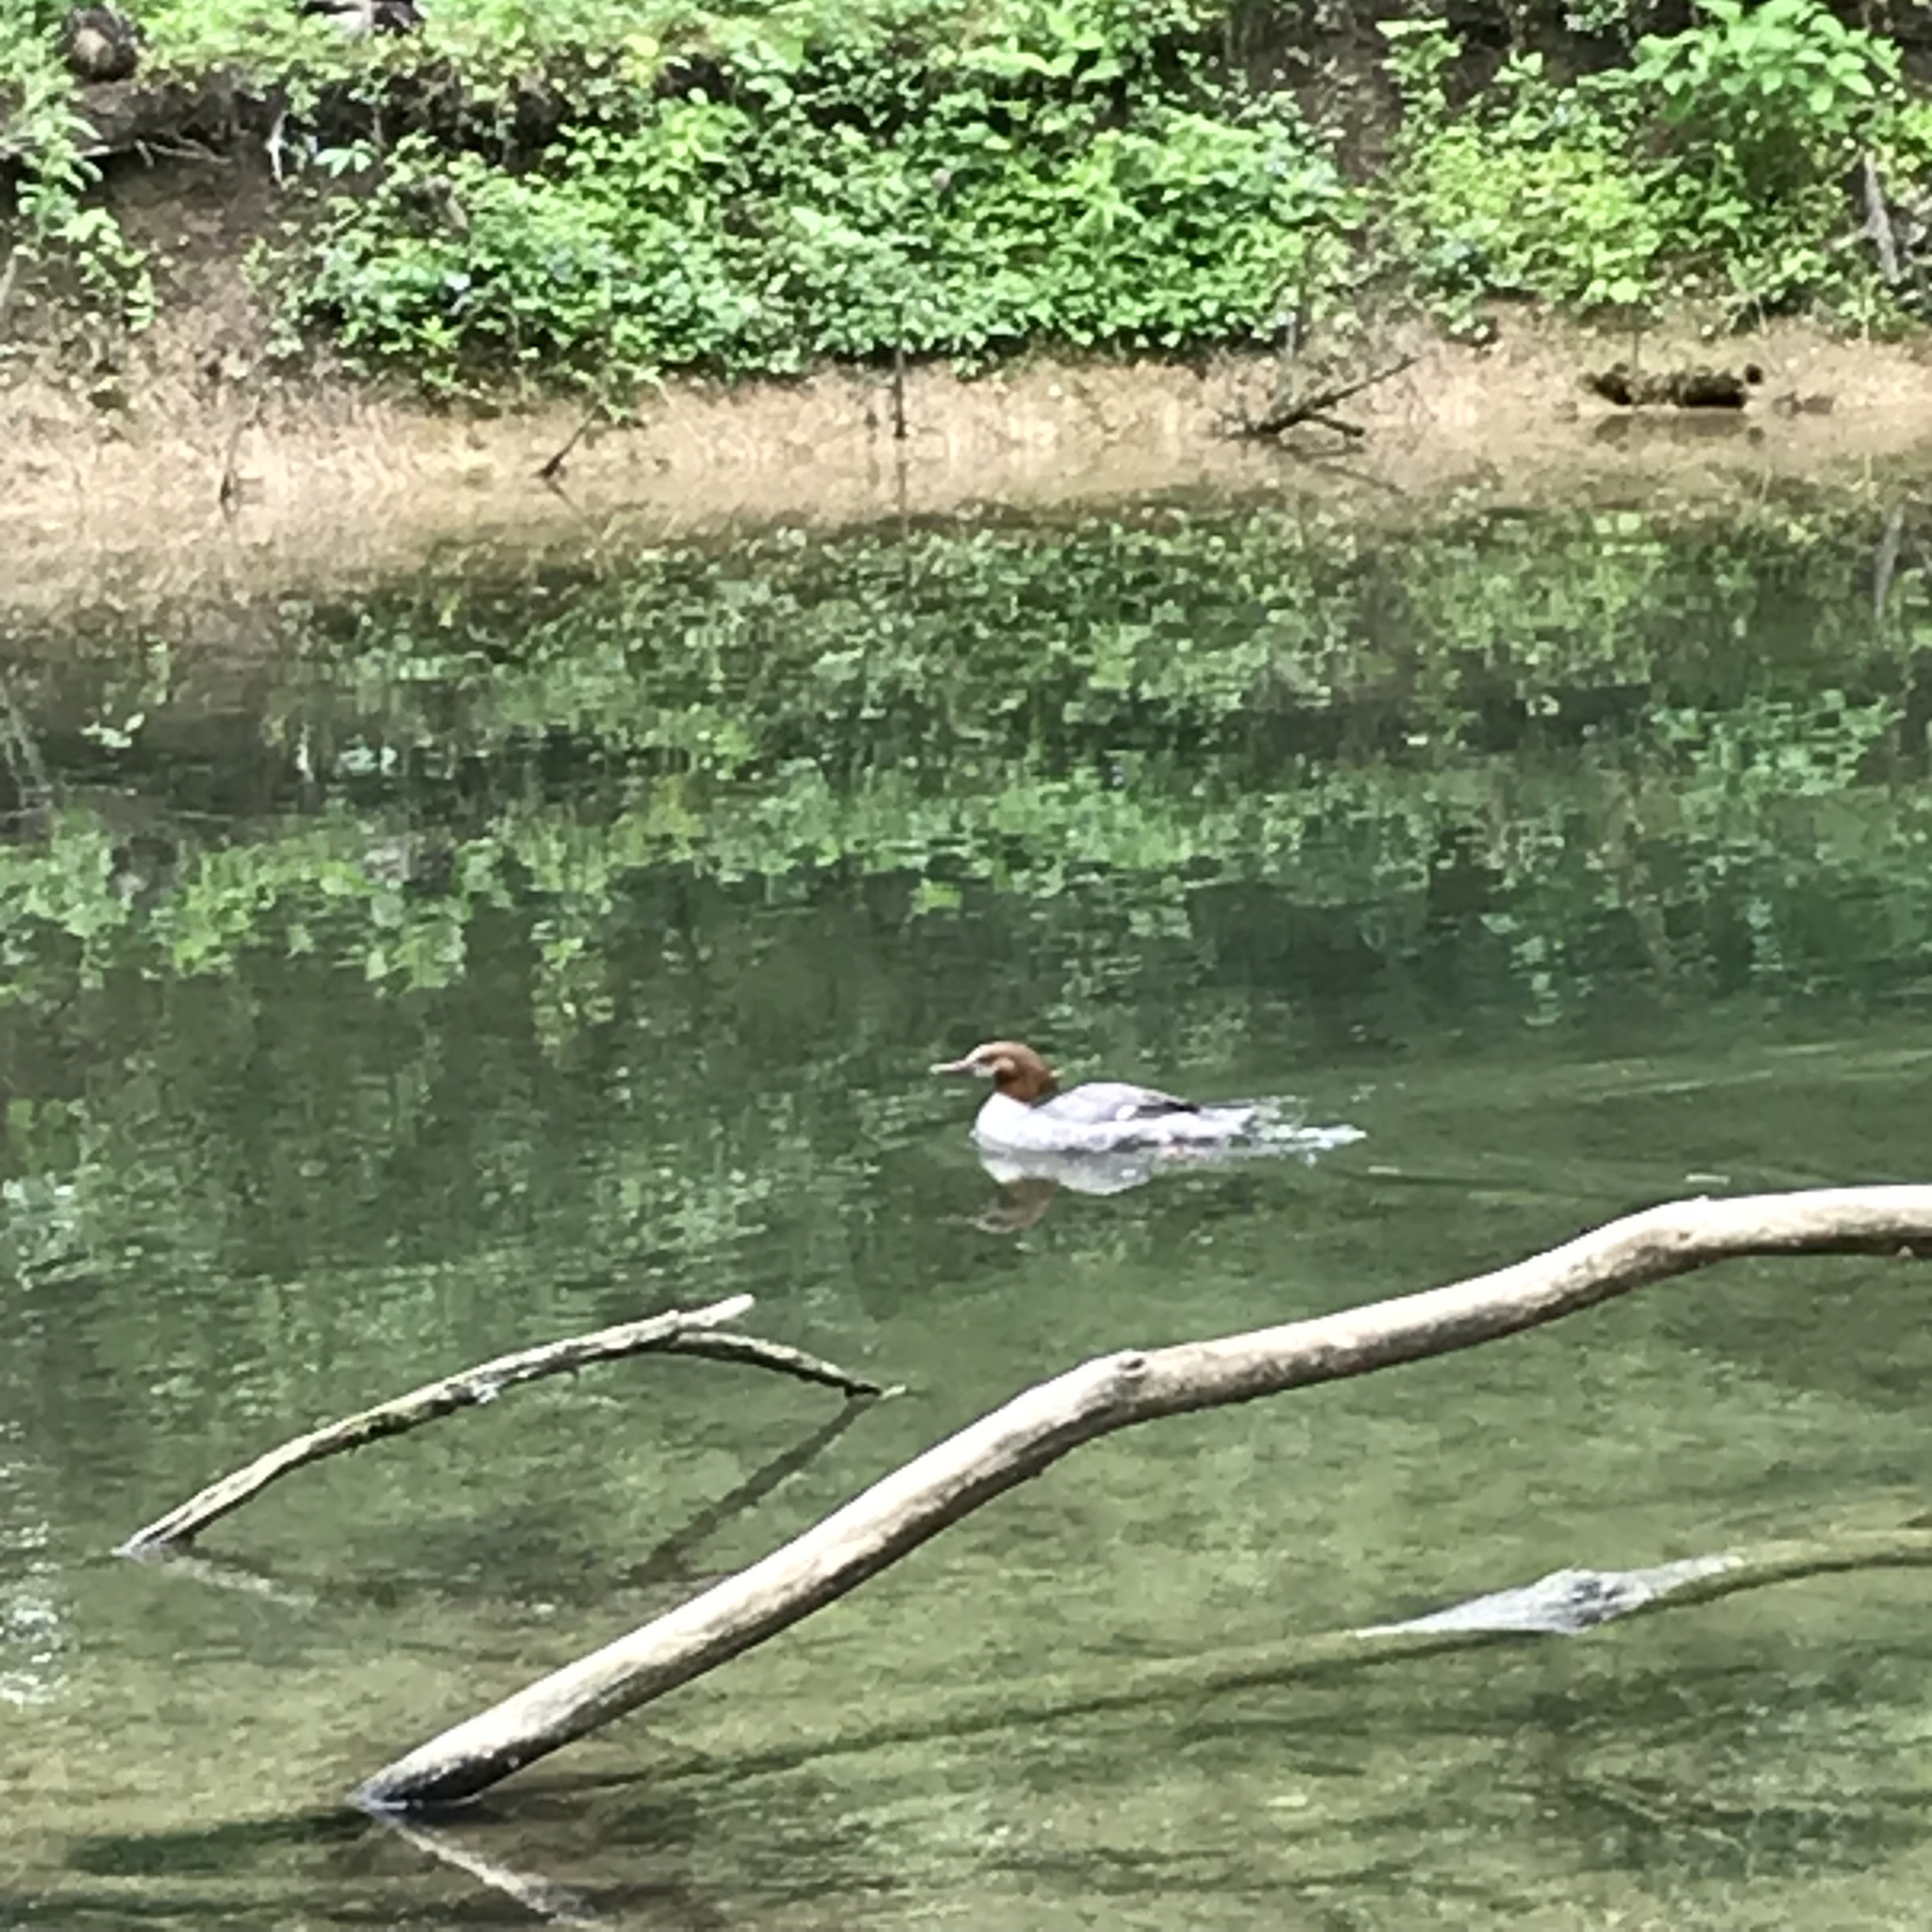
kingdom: Animalia
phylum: Chordata
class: Aves
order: Anseriformes
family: Anatidae
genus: Mergus
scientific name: Mergus merganser
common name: Common merganser
